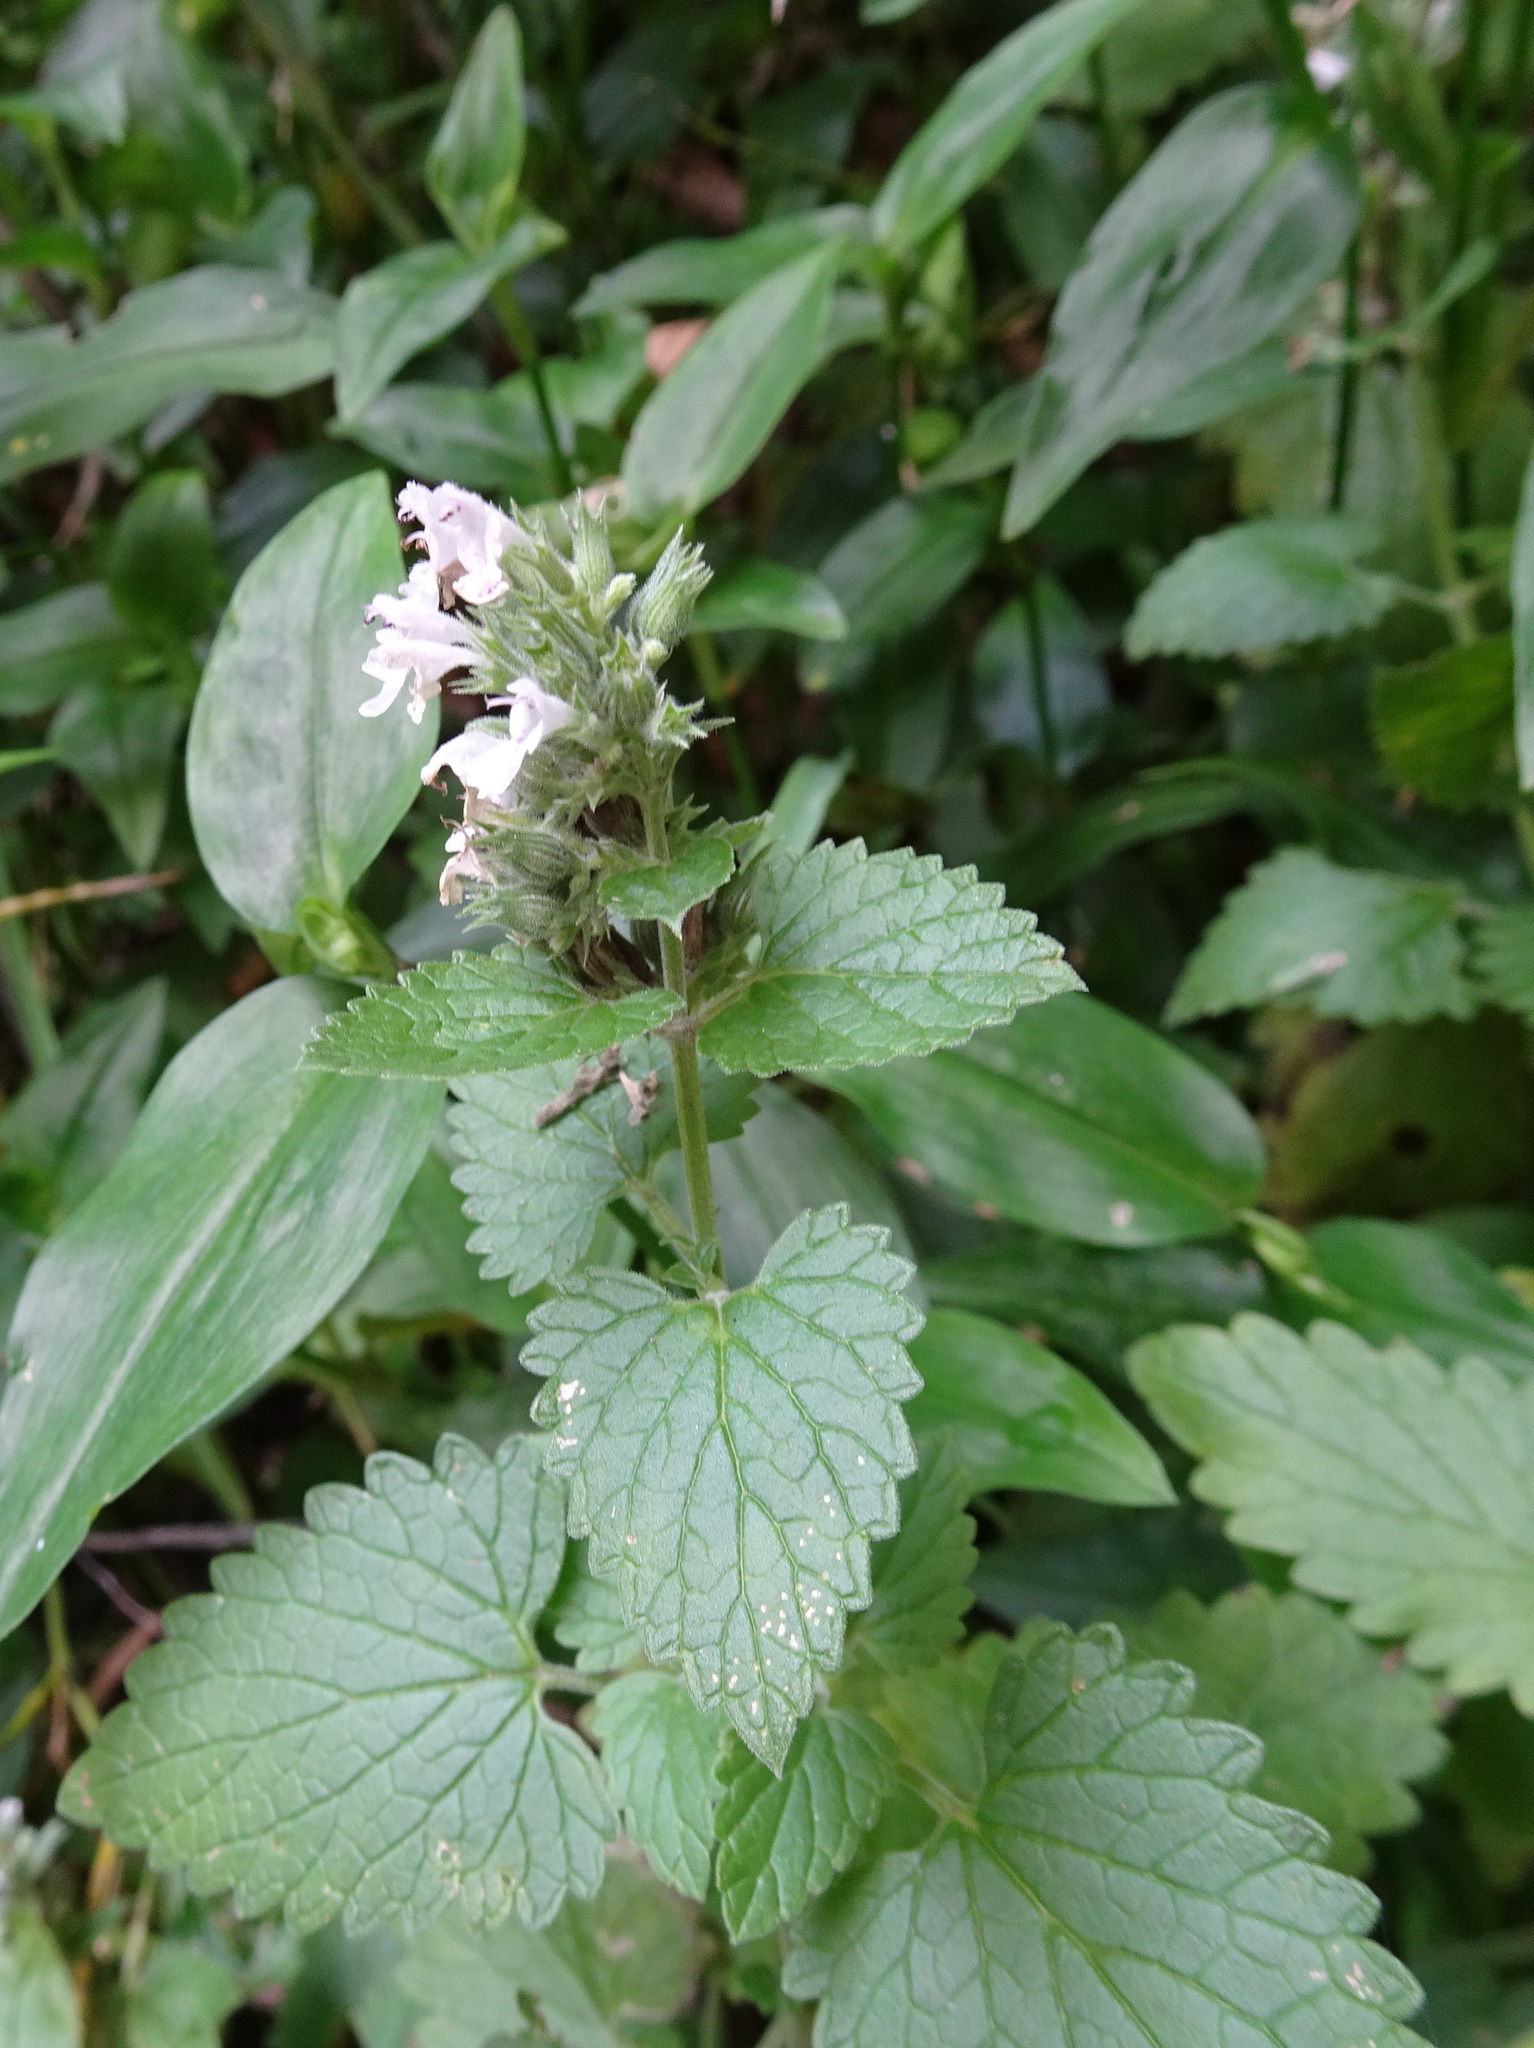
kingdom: Plantae
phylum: Tracheophyta
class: Magnoliopsida
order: Lamiales
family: Lamiaceae
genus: Nepeta
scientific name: Nepeta cataria
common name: Catnip
